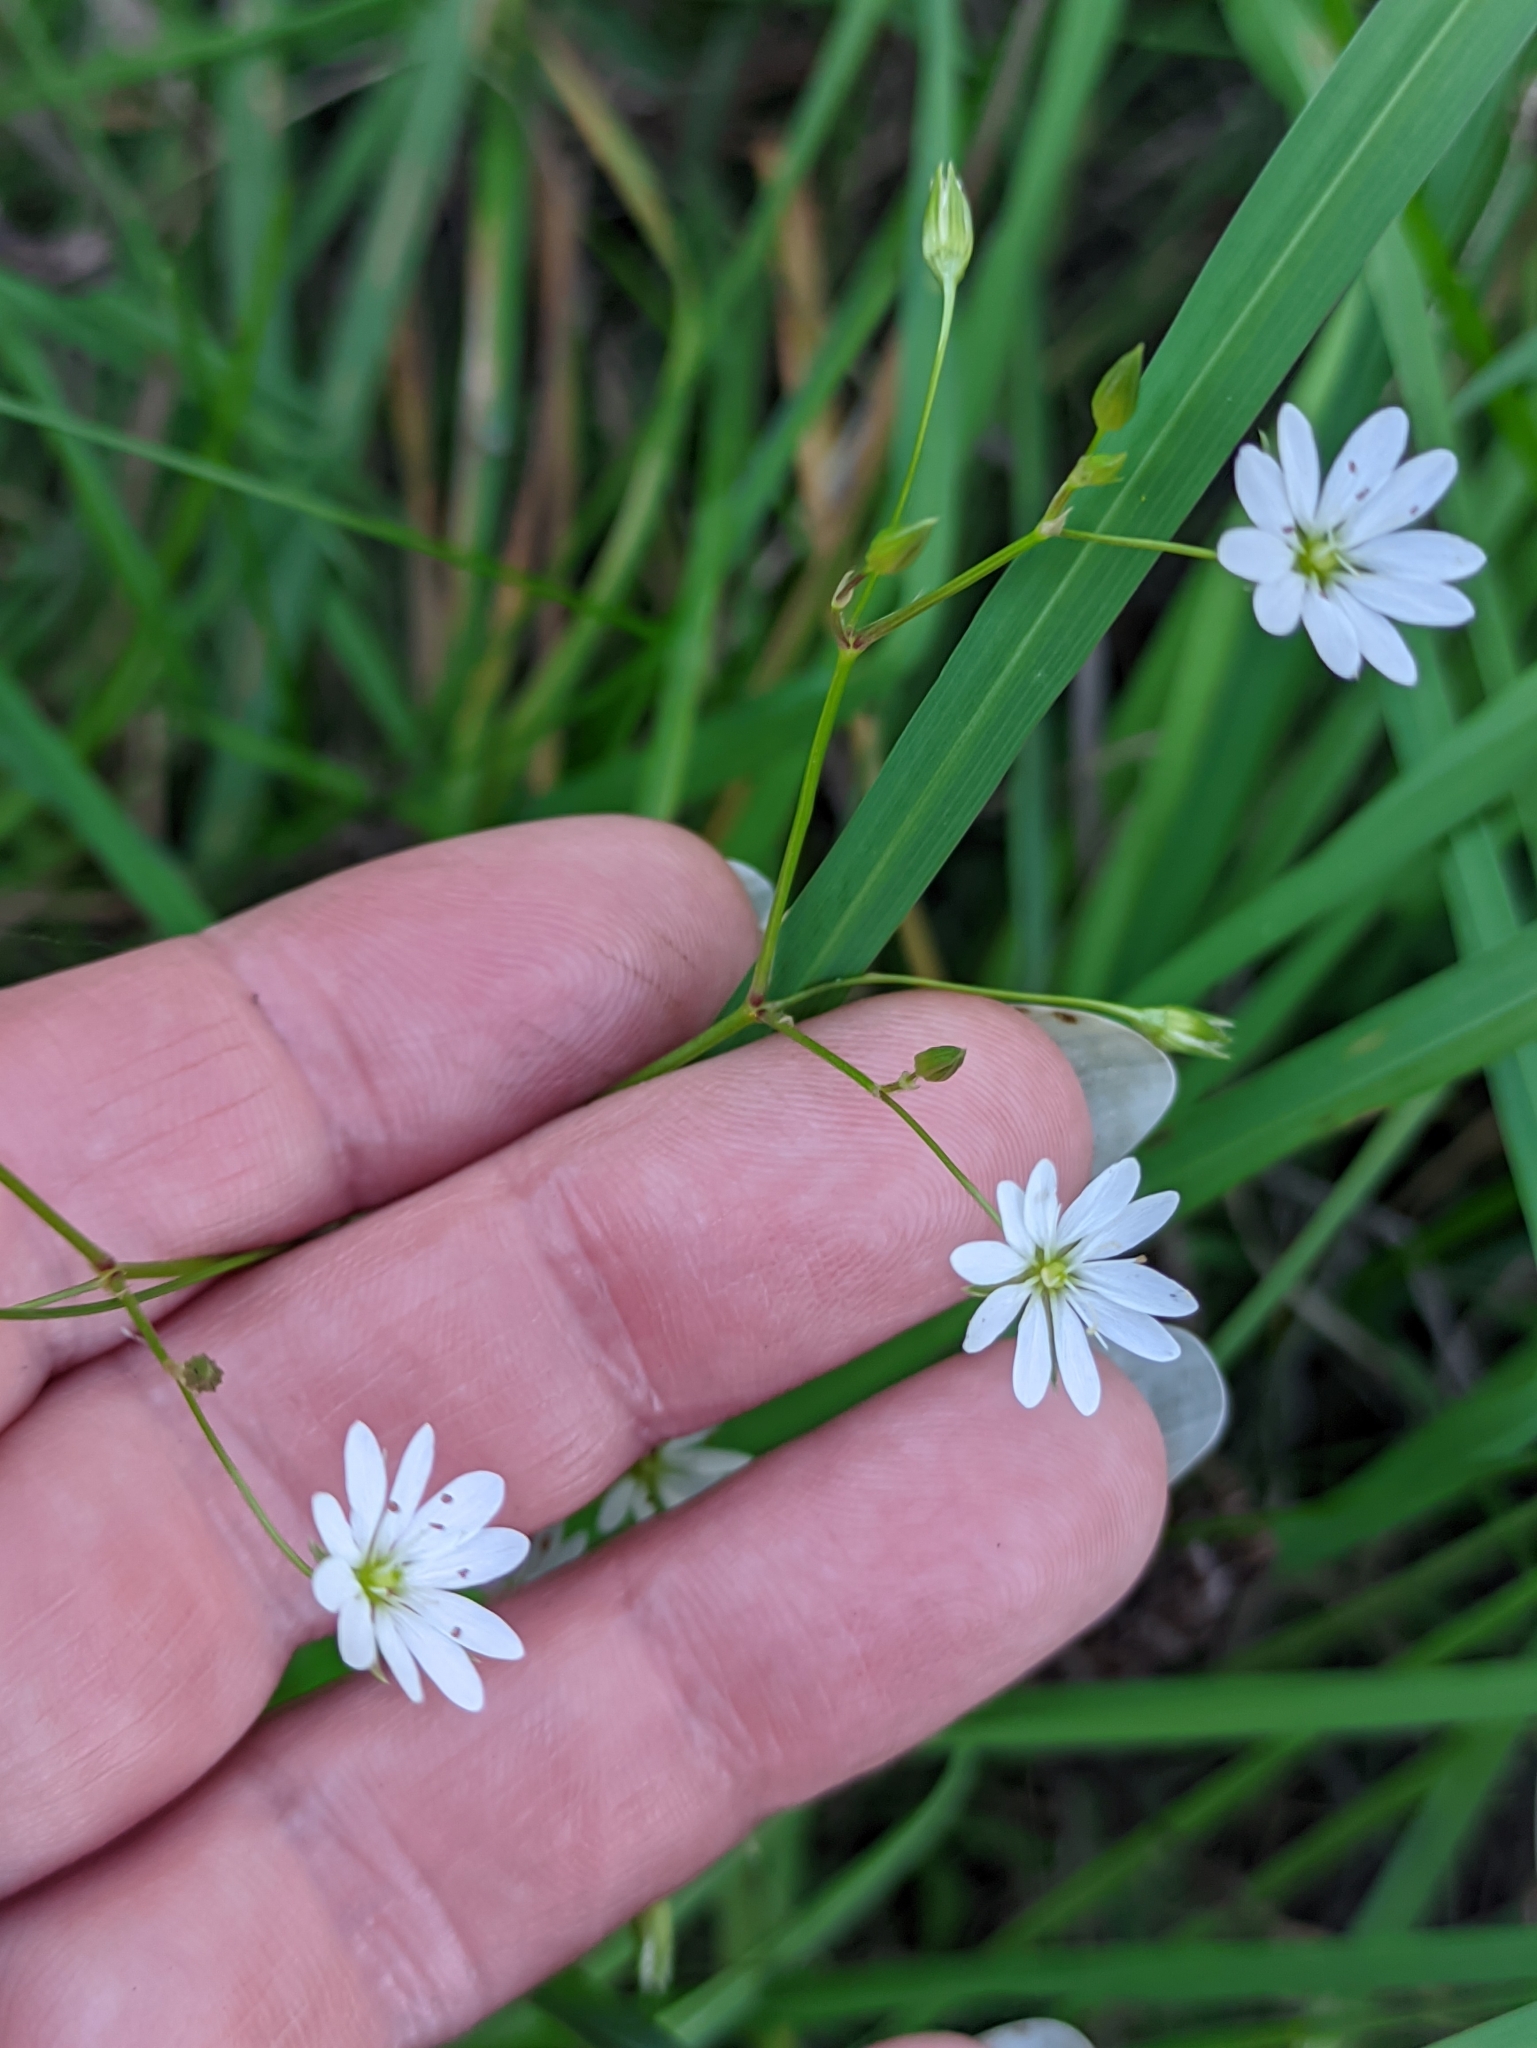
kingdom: Plantae
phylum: Tracheophyta
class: Magnoliopsida
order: Caryophyllales
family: Caryophyllaceae
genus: Stellaria
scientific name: Stellaria graminea
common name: Grass-like starwort
